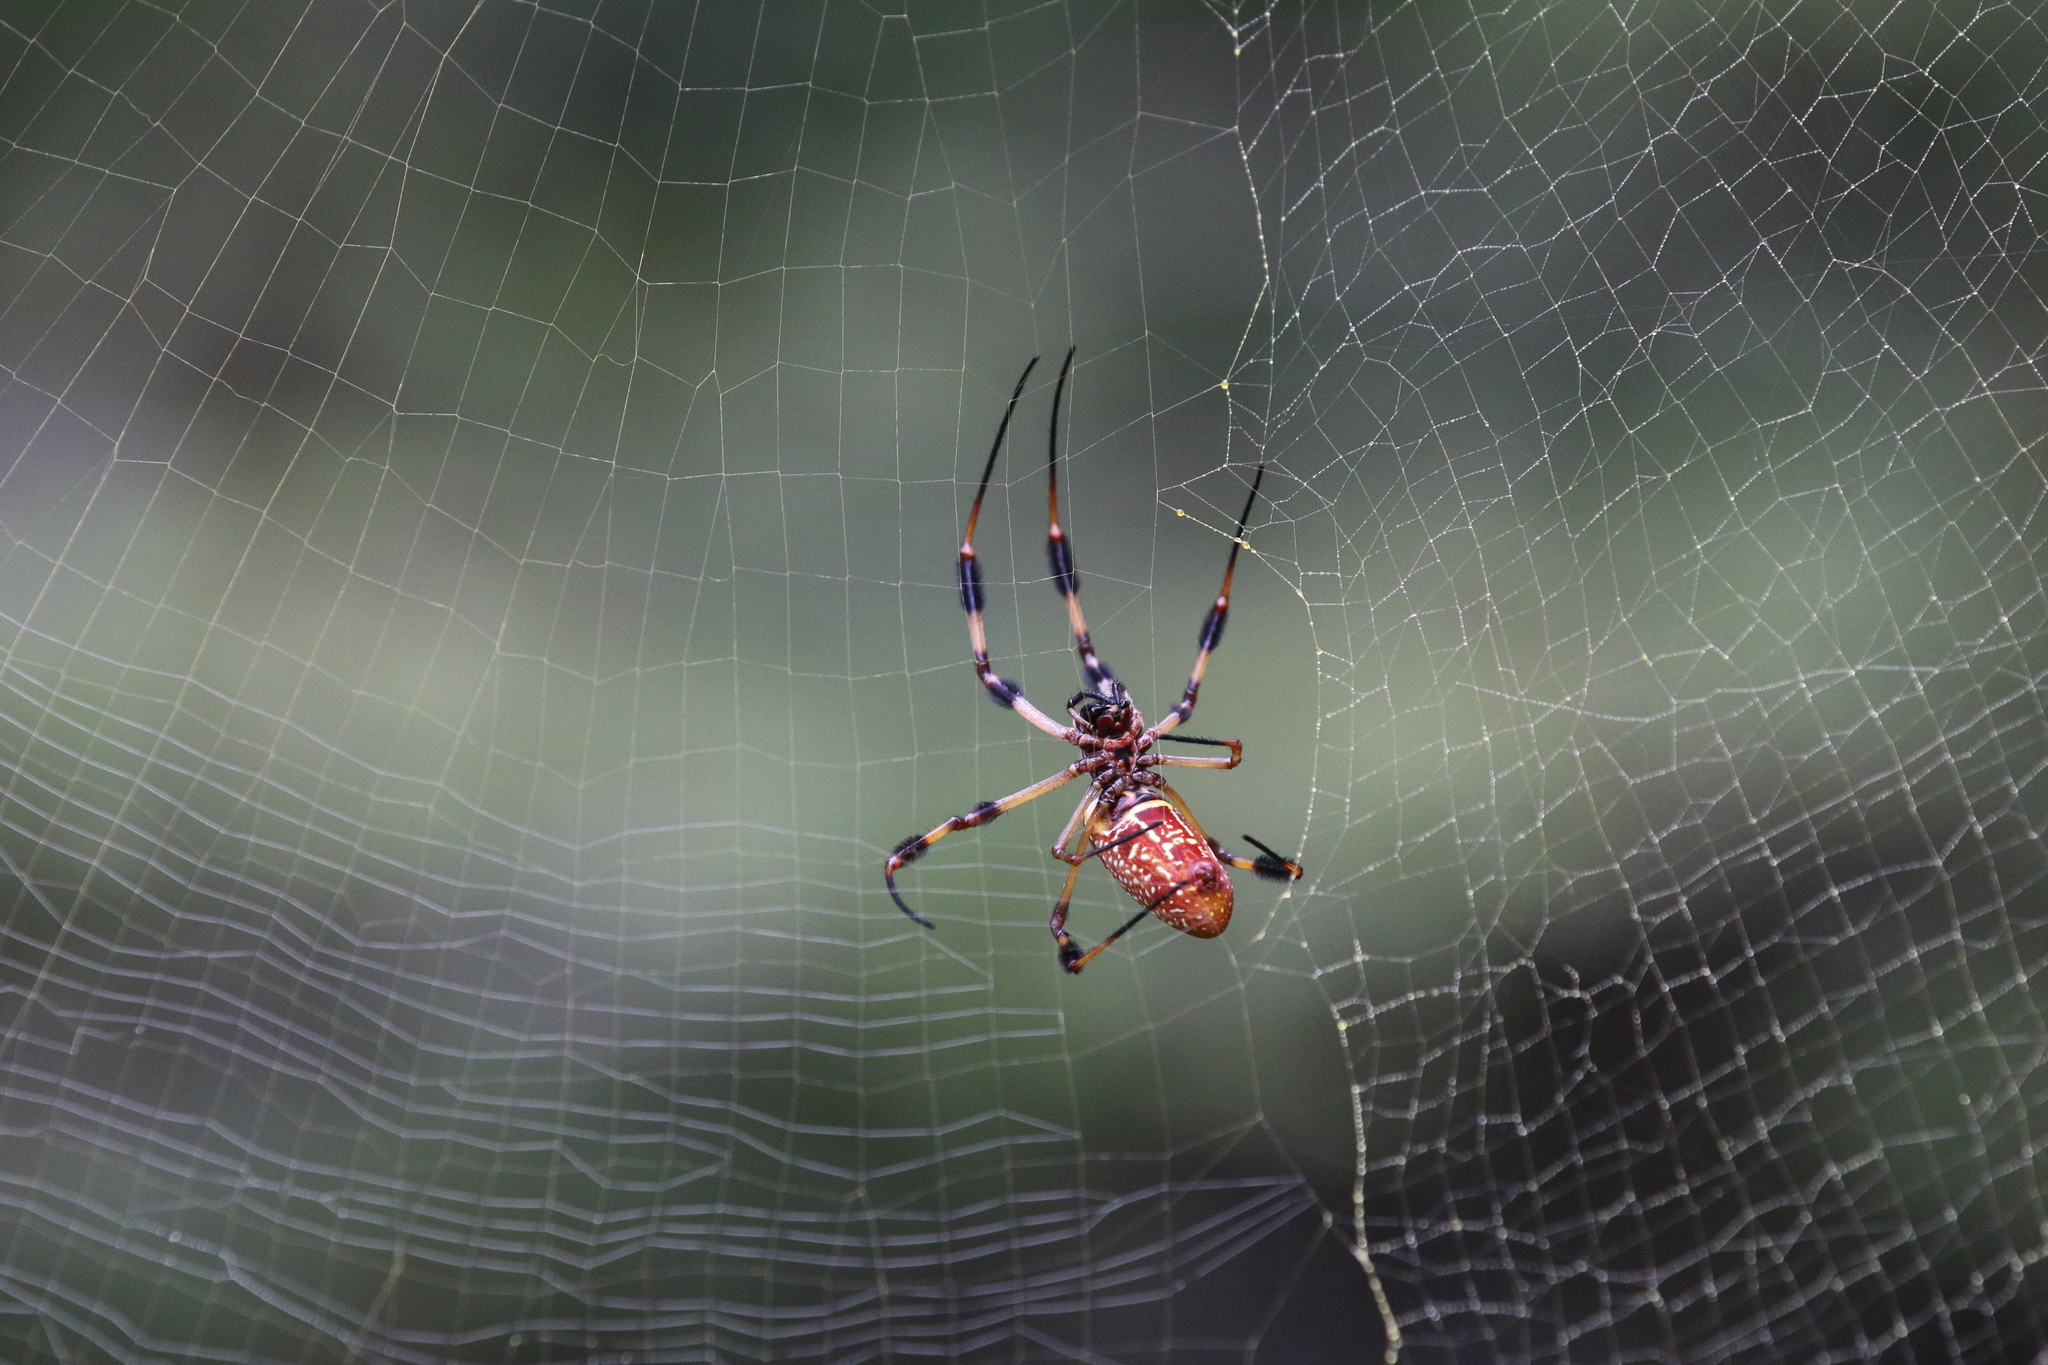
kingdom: Animalia
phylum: Arthropoda
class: Arachnida
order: Araneae
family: Araneidae
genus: Trichonephila
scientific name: Trichonephila clavipes
